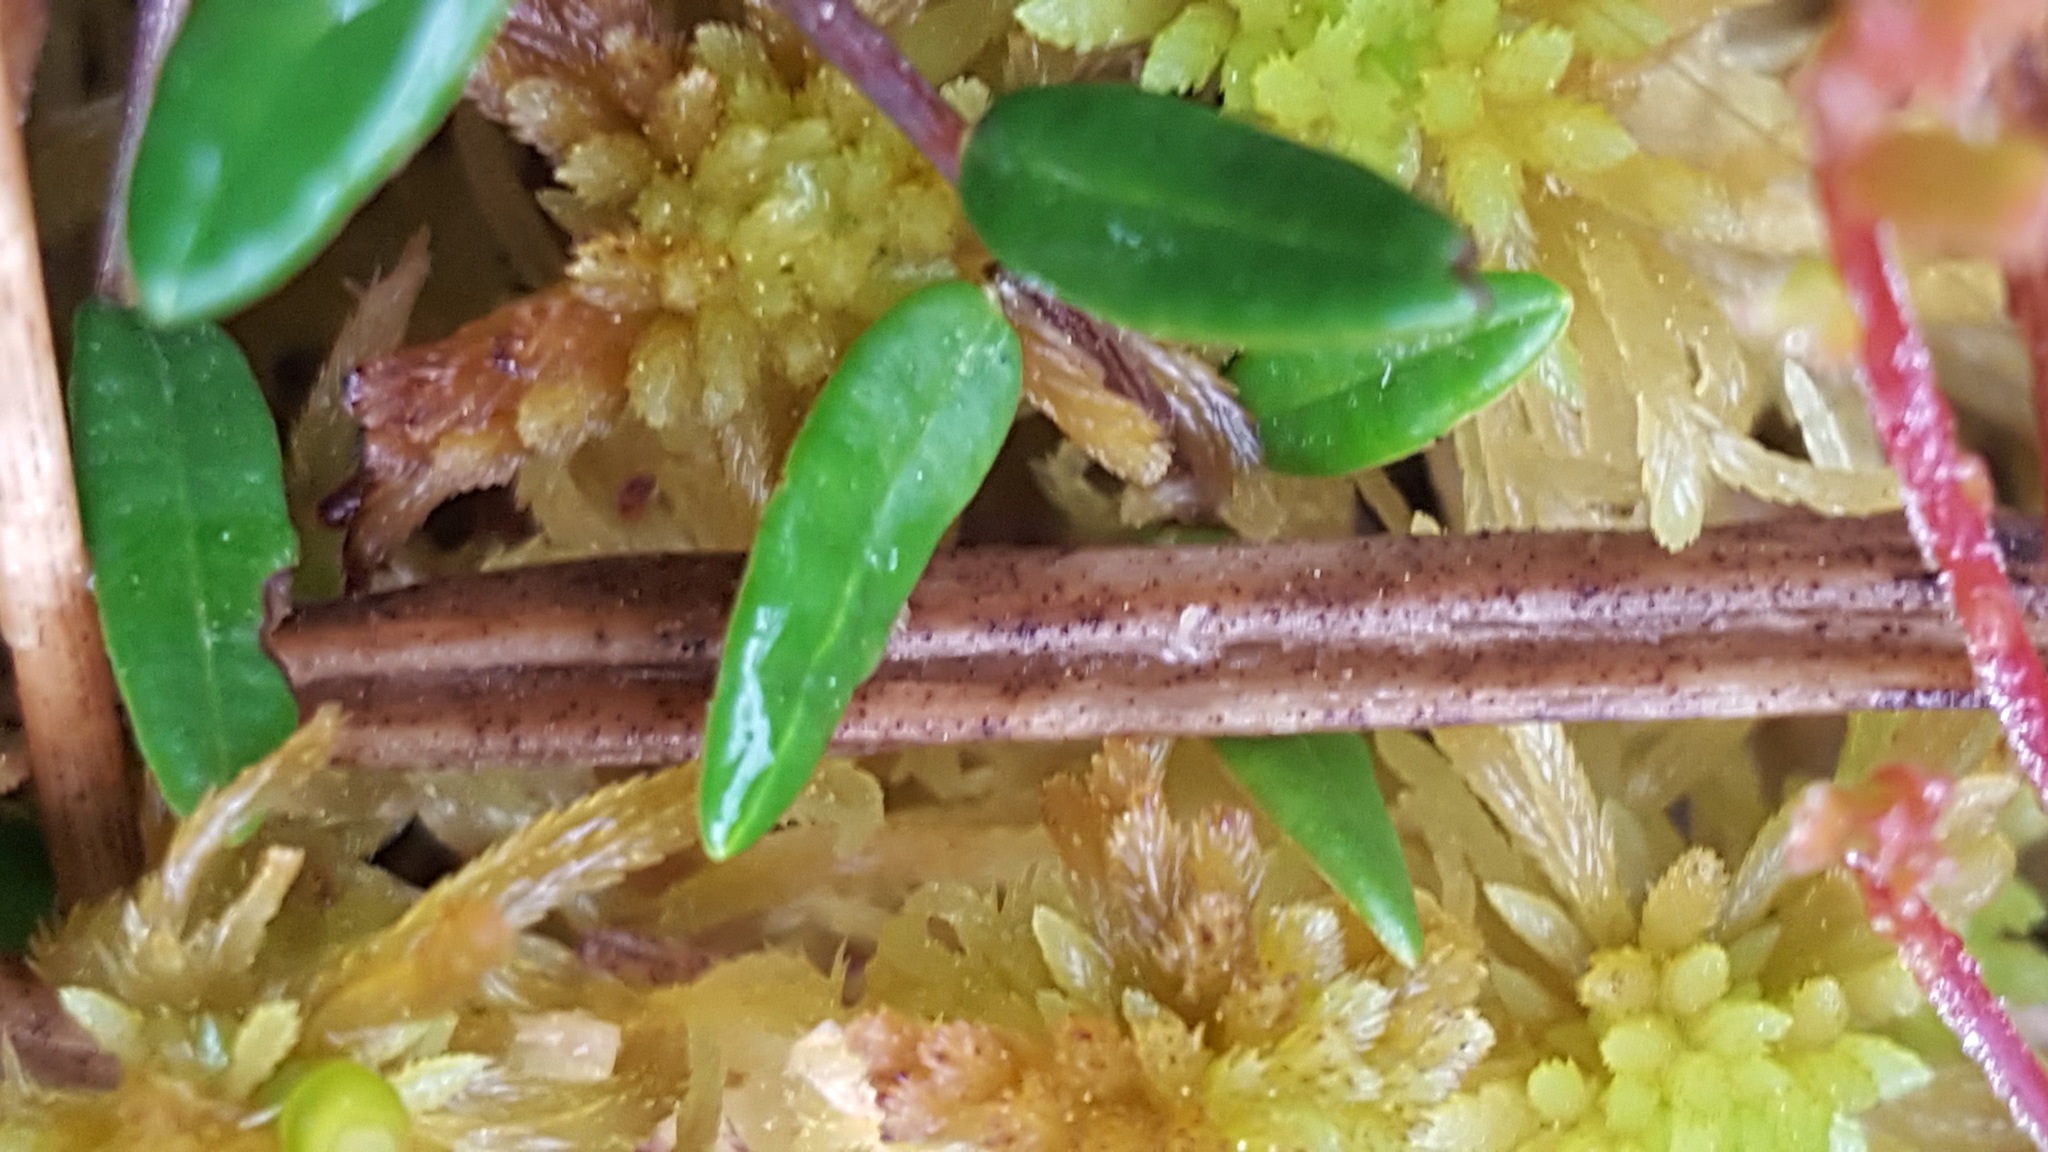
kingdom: Plantae
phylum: Tracheophyta
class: Magnoliopsida
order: Ericales
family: Ericaceae
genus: Vaccinium
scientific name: Vaccinium oxycoccos
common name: Cranberry
